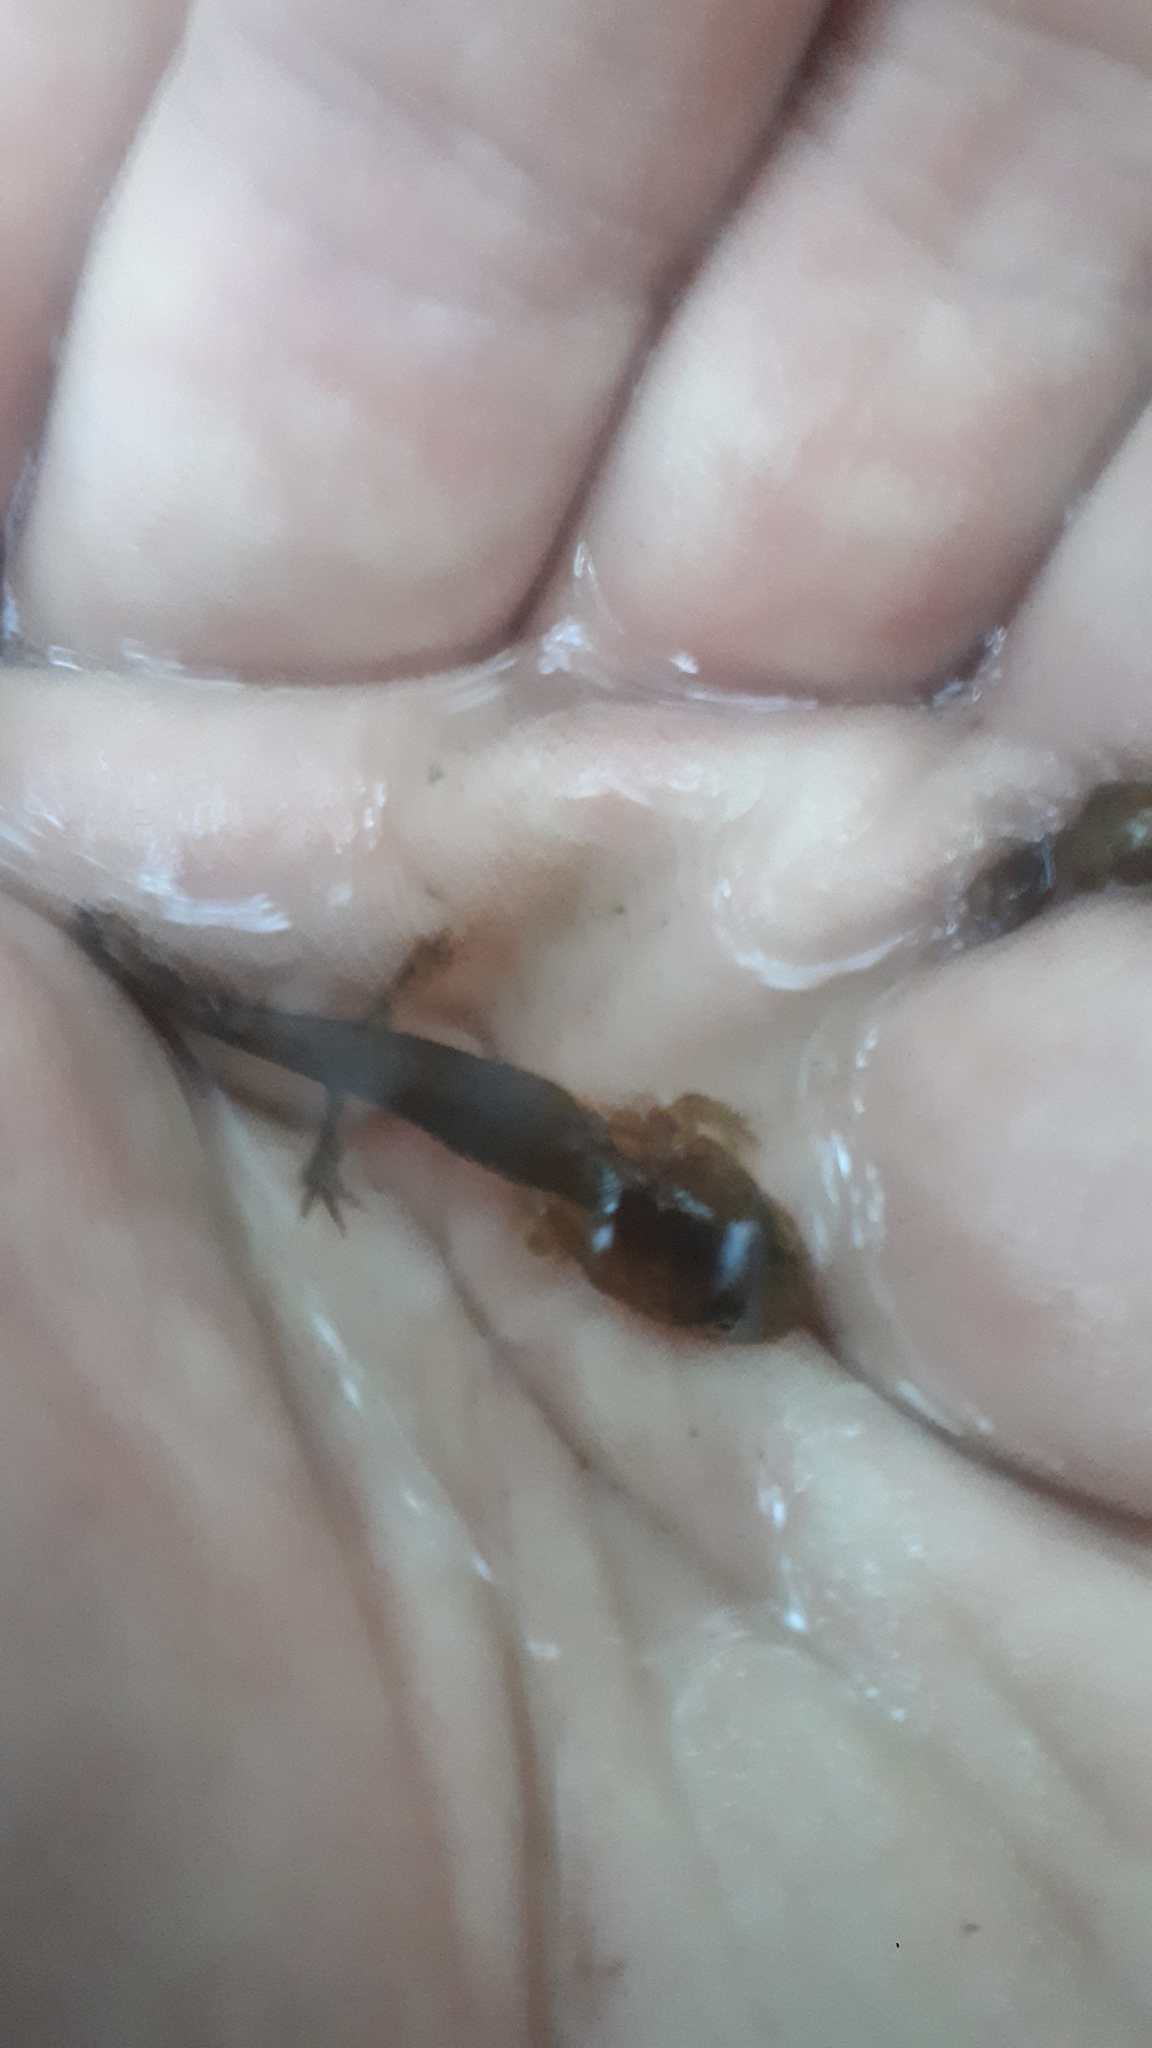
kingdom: Animalia
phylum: Chordata
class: Amphibia
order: Caudata
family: Hynobiidae
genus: Hynobius
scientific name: Hynobius leechii
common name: Gensan salamander
